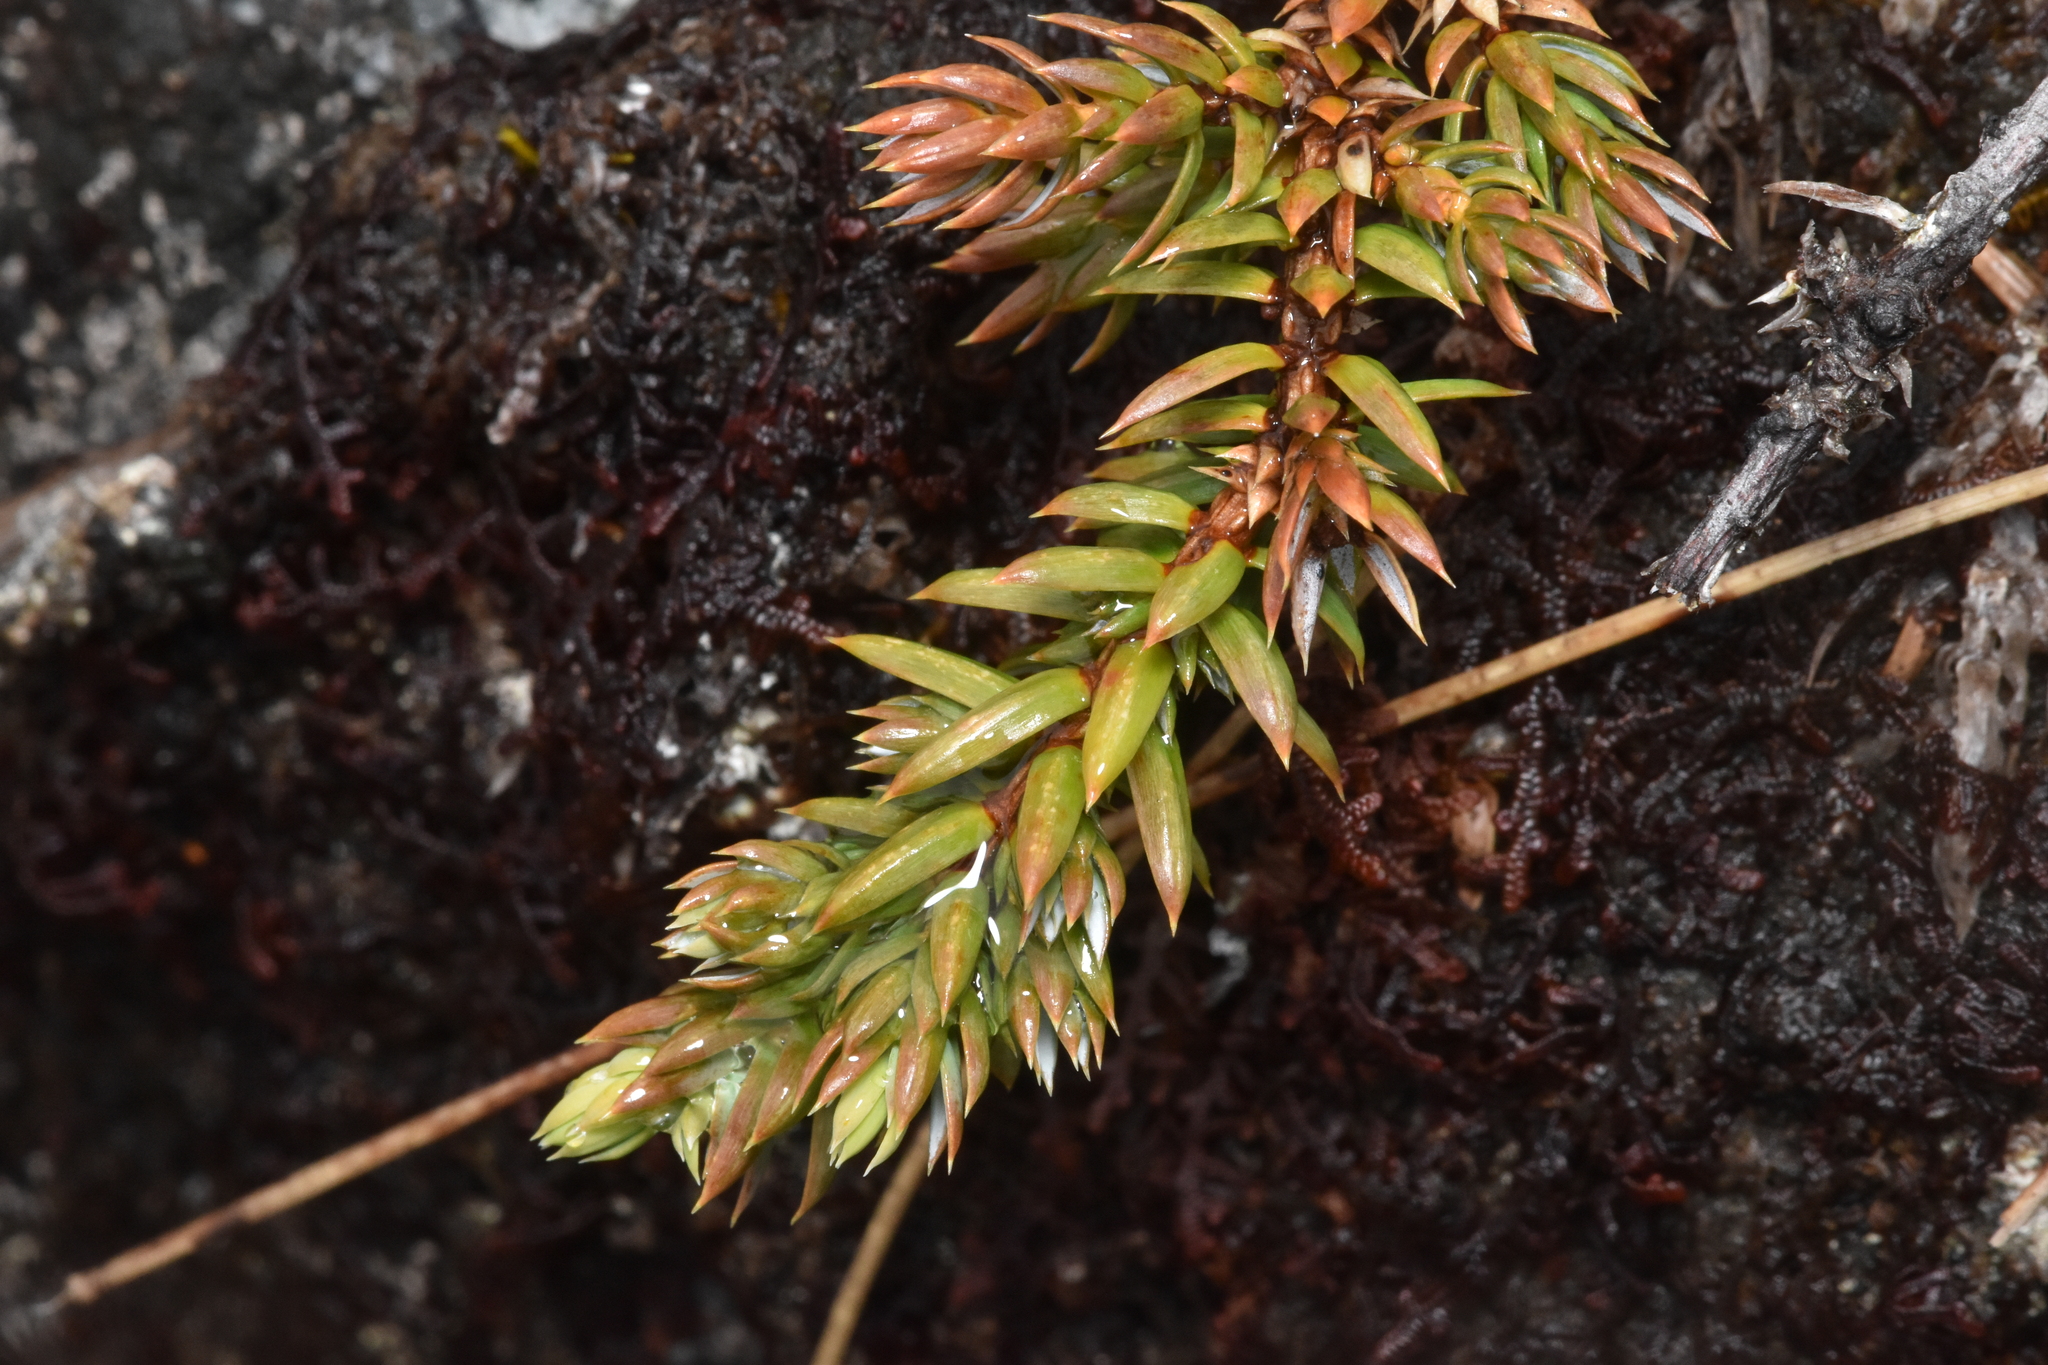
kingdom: Plantae
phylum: Tracheophyta
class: Pinopsida
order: Pinales
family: Cupressaceae
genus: Juniperus
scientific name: Juniperus communis
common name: Common juniper
